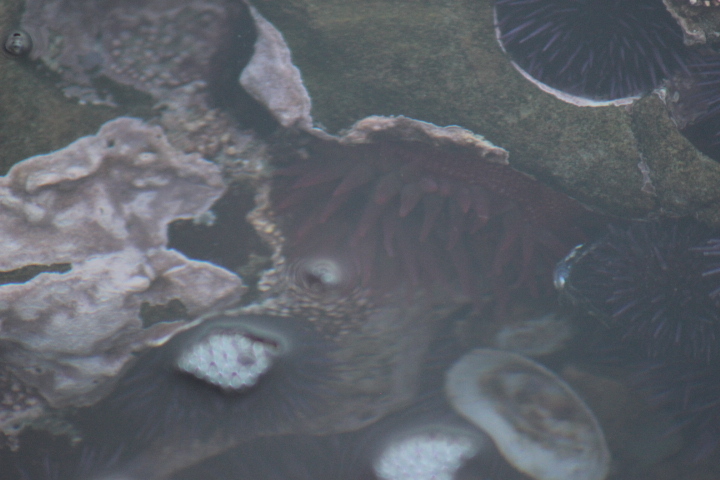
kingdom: Animalia
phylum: Cnidaria
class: Anthozoa
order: Actiniaria
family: Actiniidae
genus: Cribrinopsis
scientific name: Cribrinopsis albopunctata
